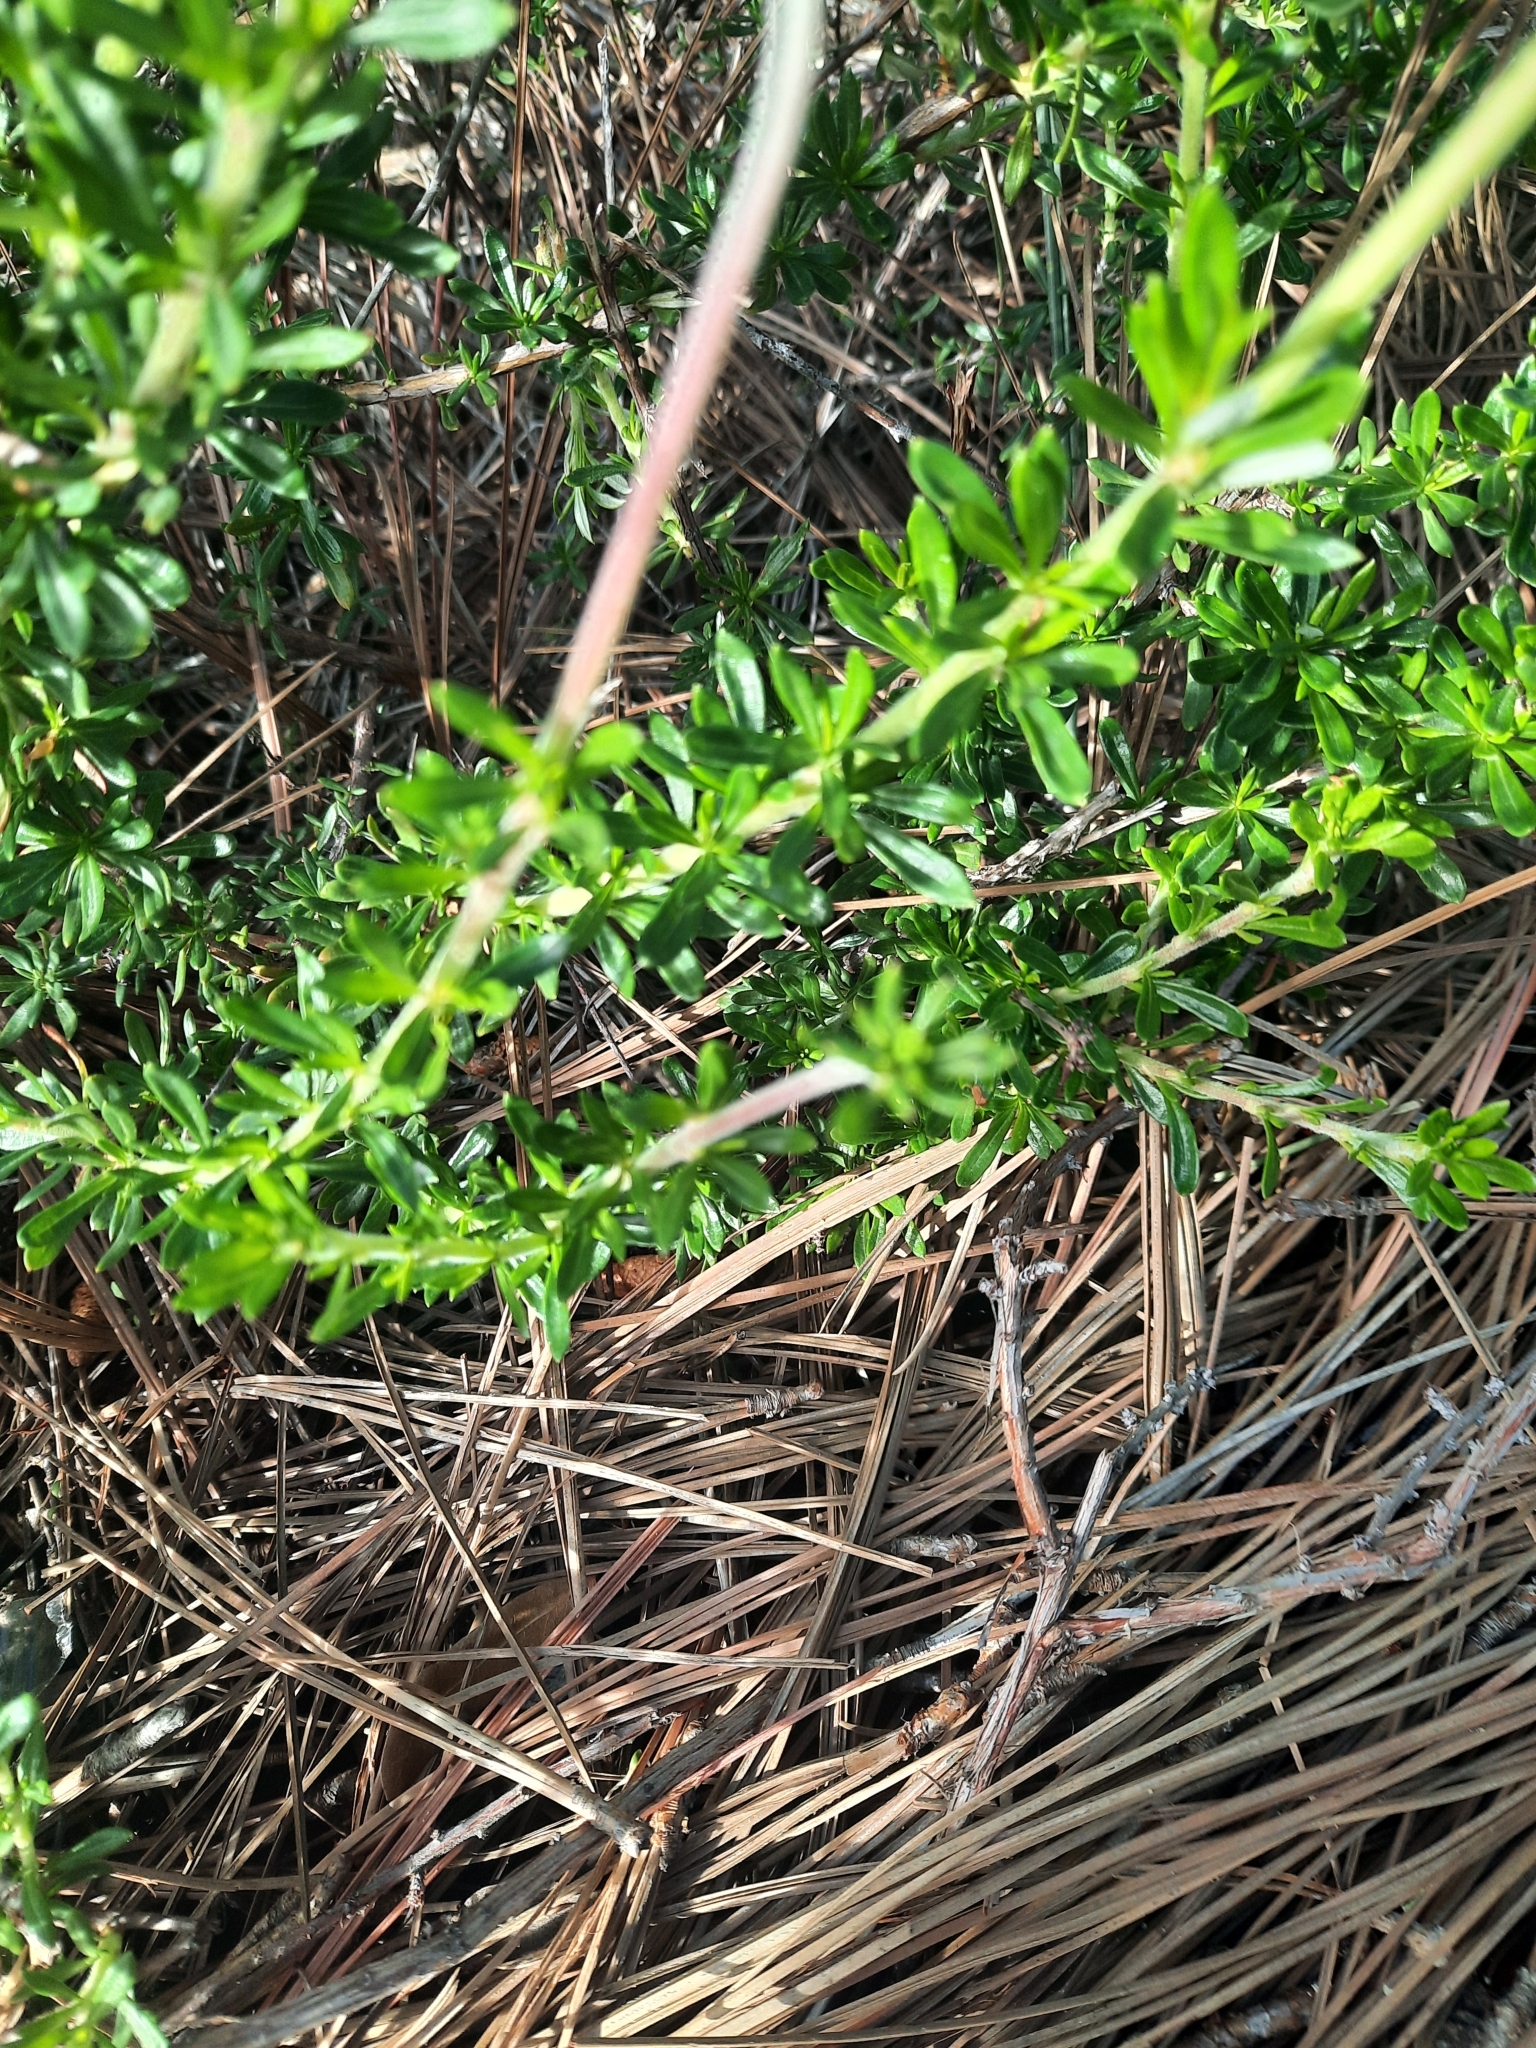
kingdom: Plantae
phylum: Tracheophyta
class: Magnoliopsida
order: Caryophyllales
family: Polygonaceae
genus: Eriogonum
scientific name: Eriogonum fasciculatum
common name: California wild buckwheat
